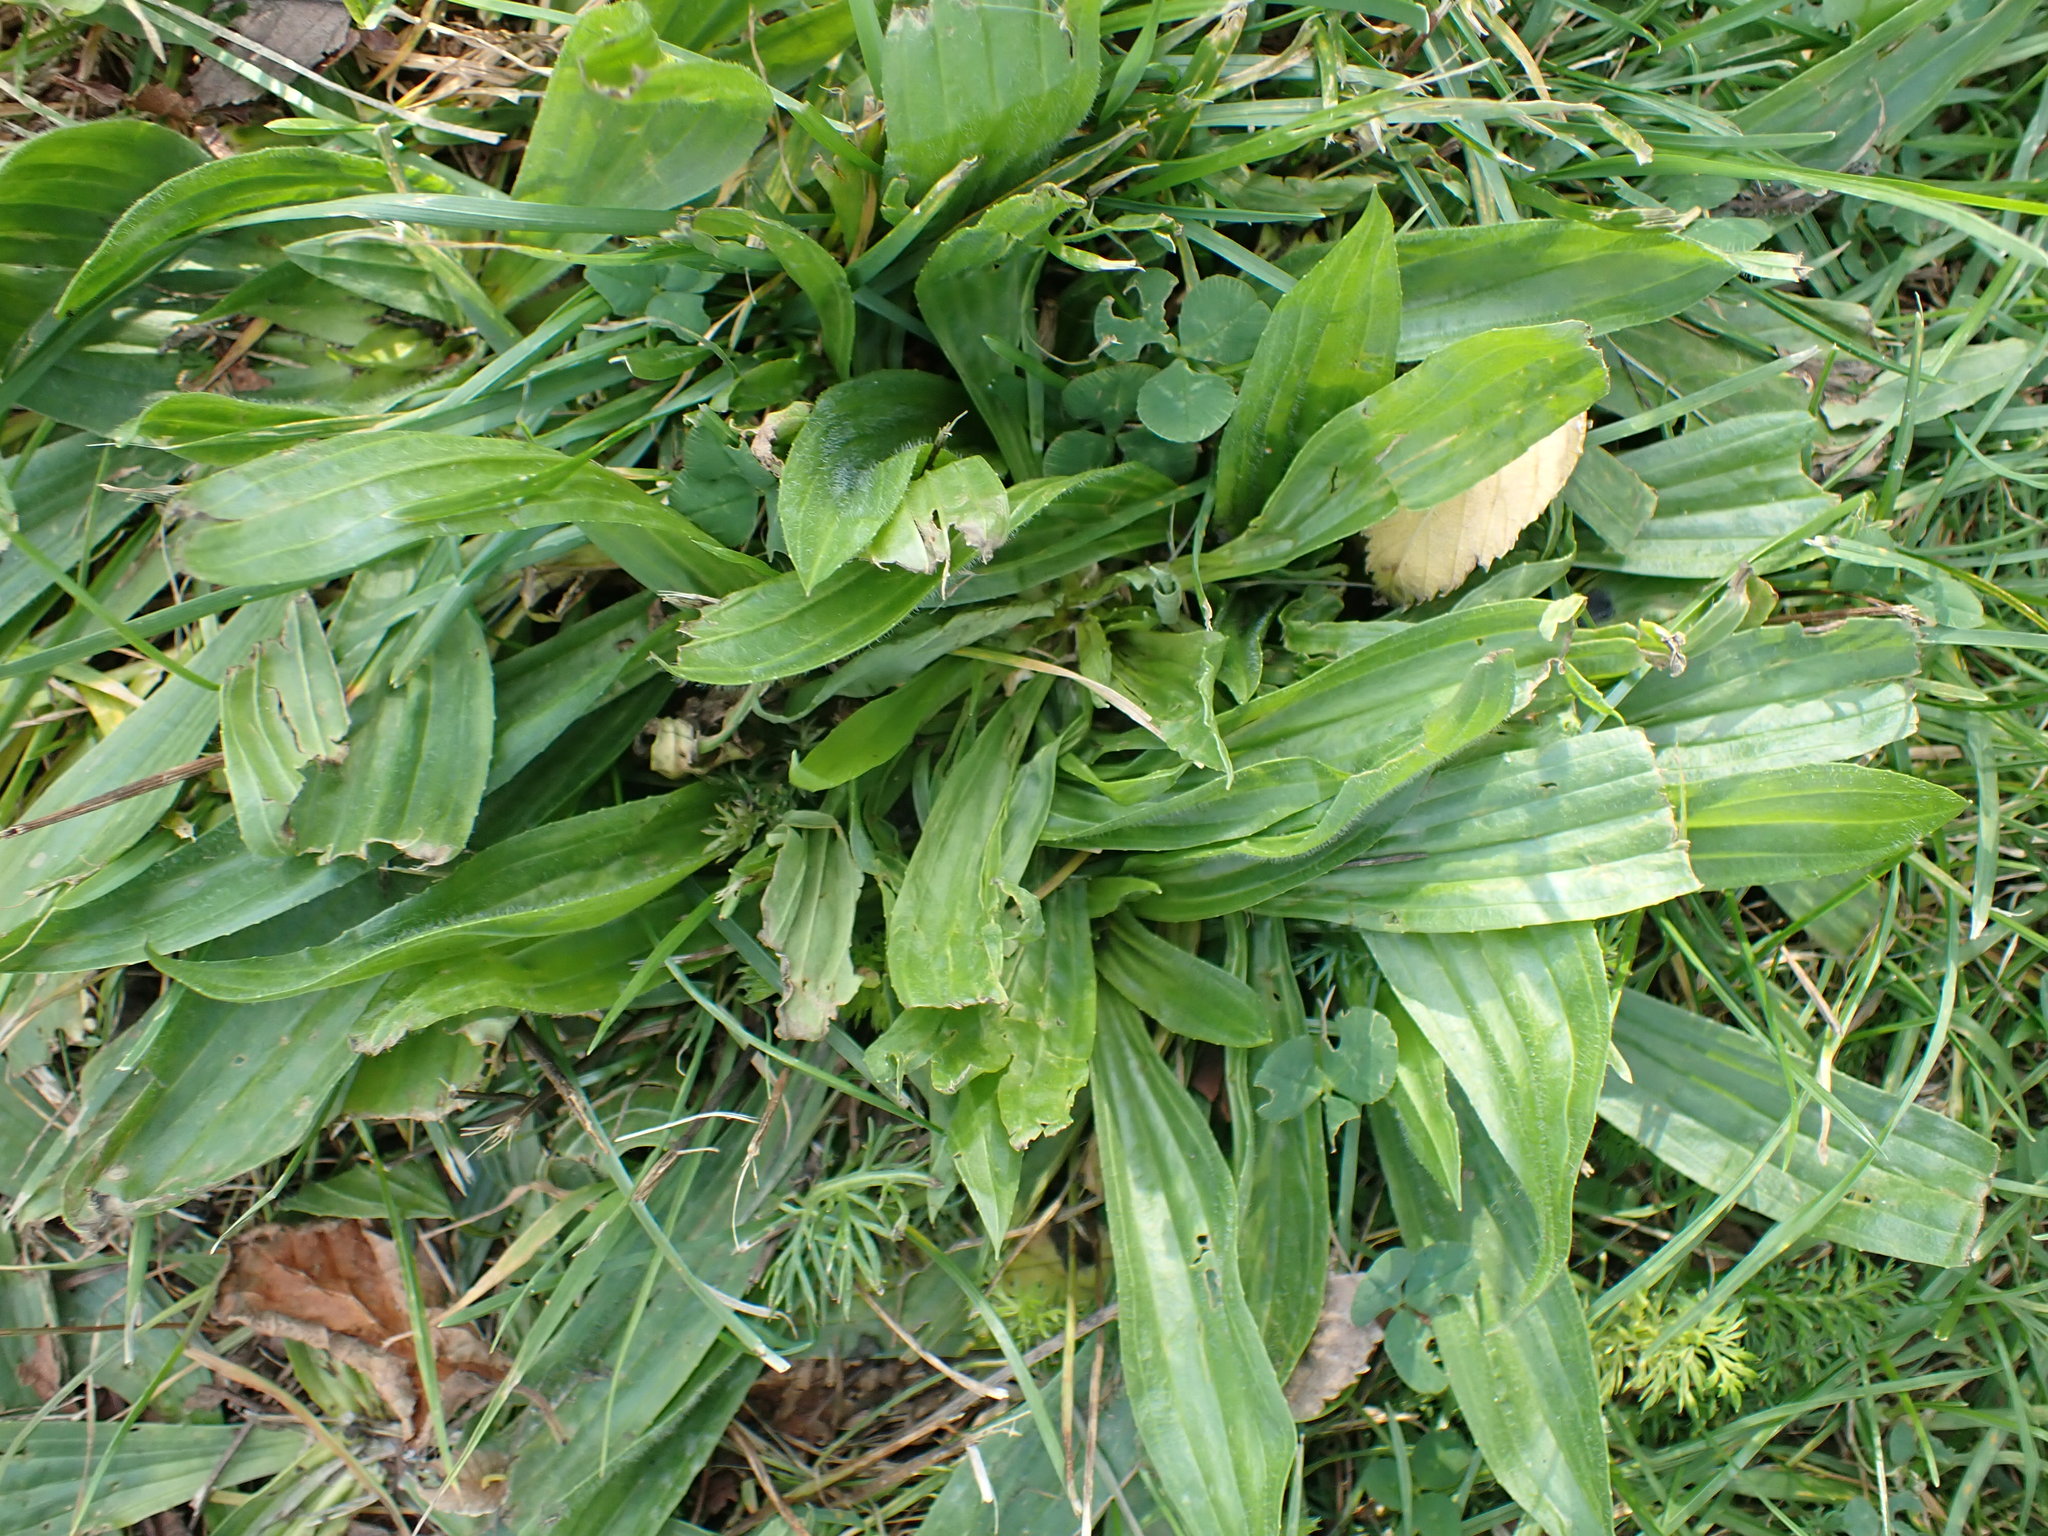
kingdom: Plantae
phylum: Tracheophyta
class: Magnoliopsida
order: Lamiales
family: Plantaginaceae
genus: Plantago
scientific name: Plantago lanceolata
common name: Ribwort plantain
